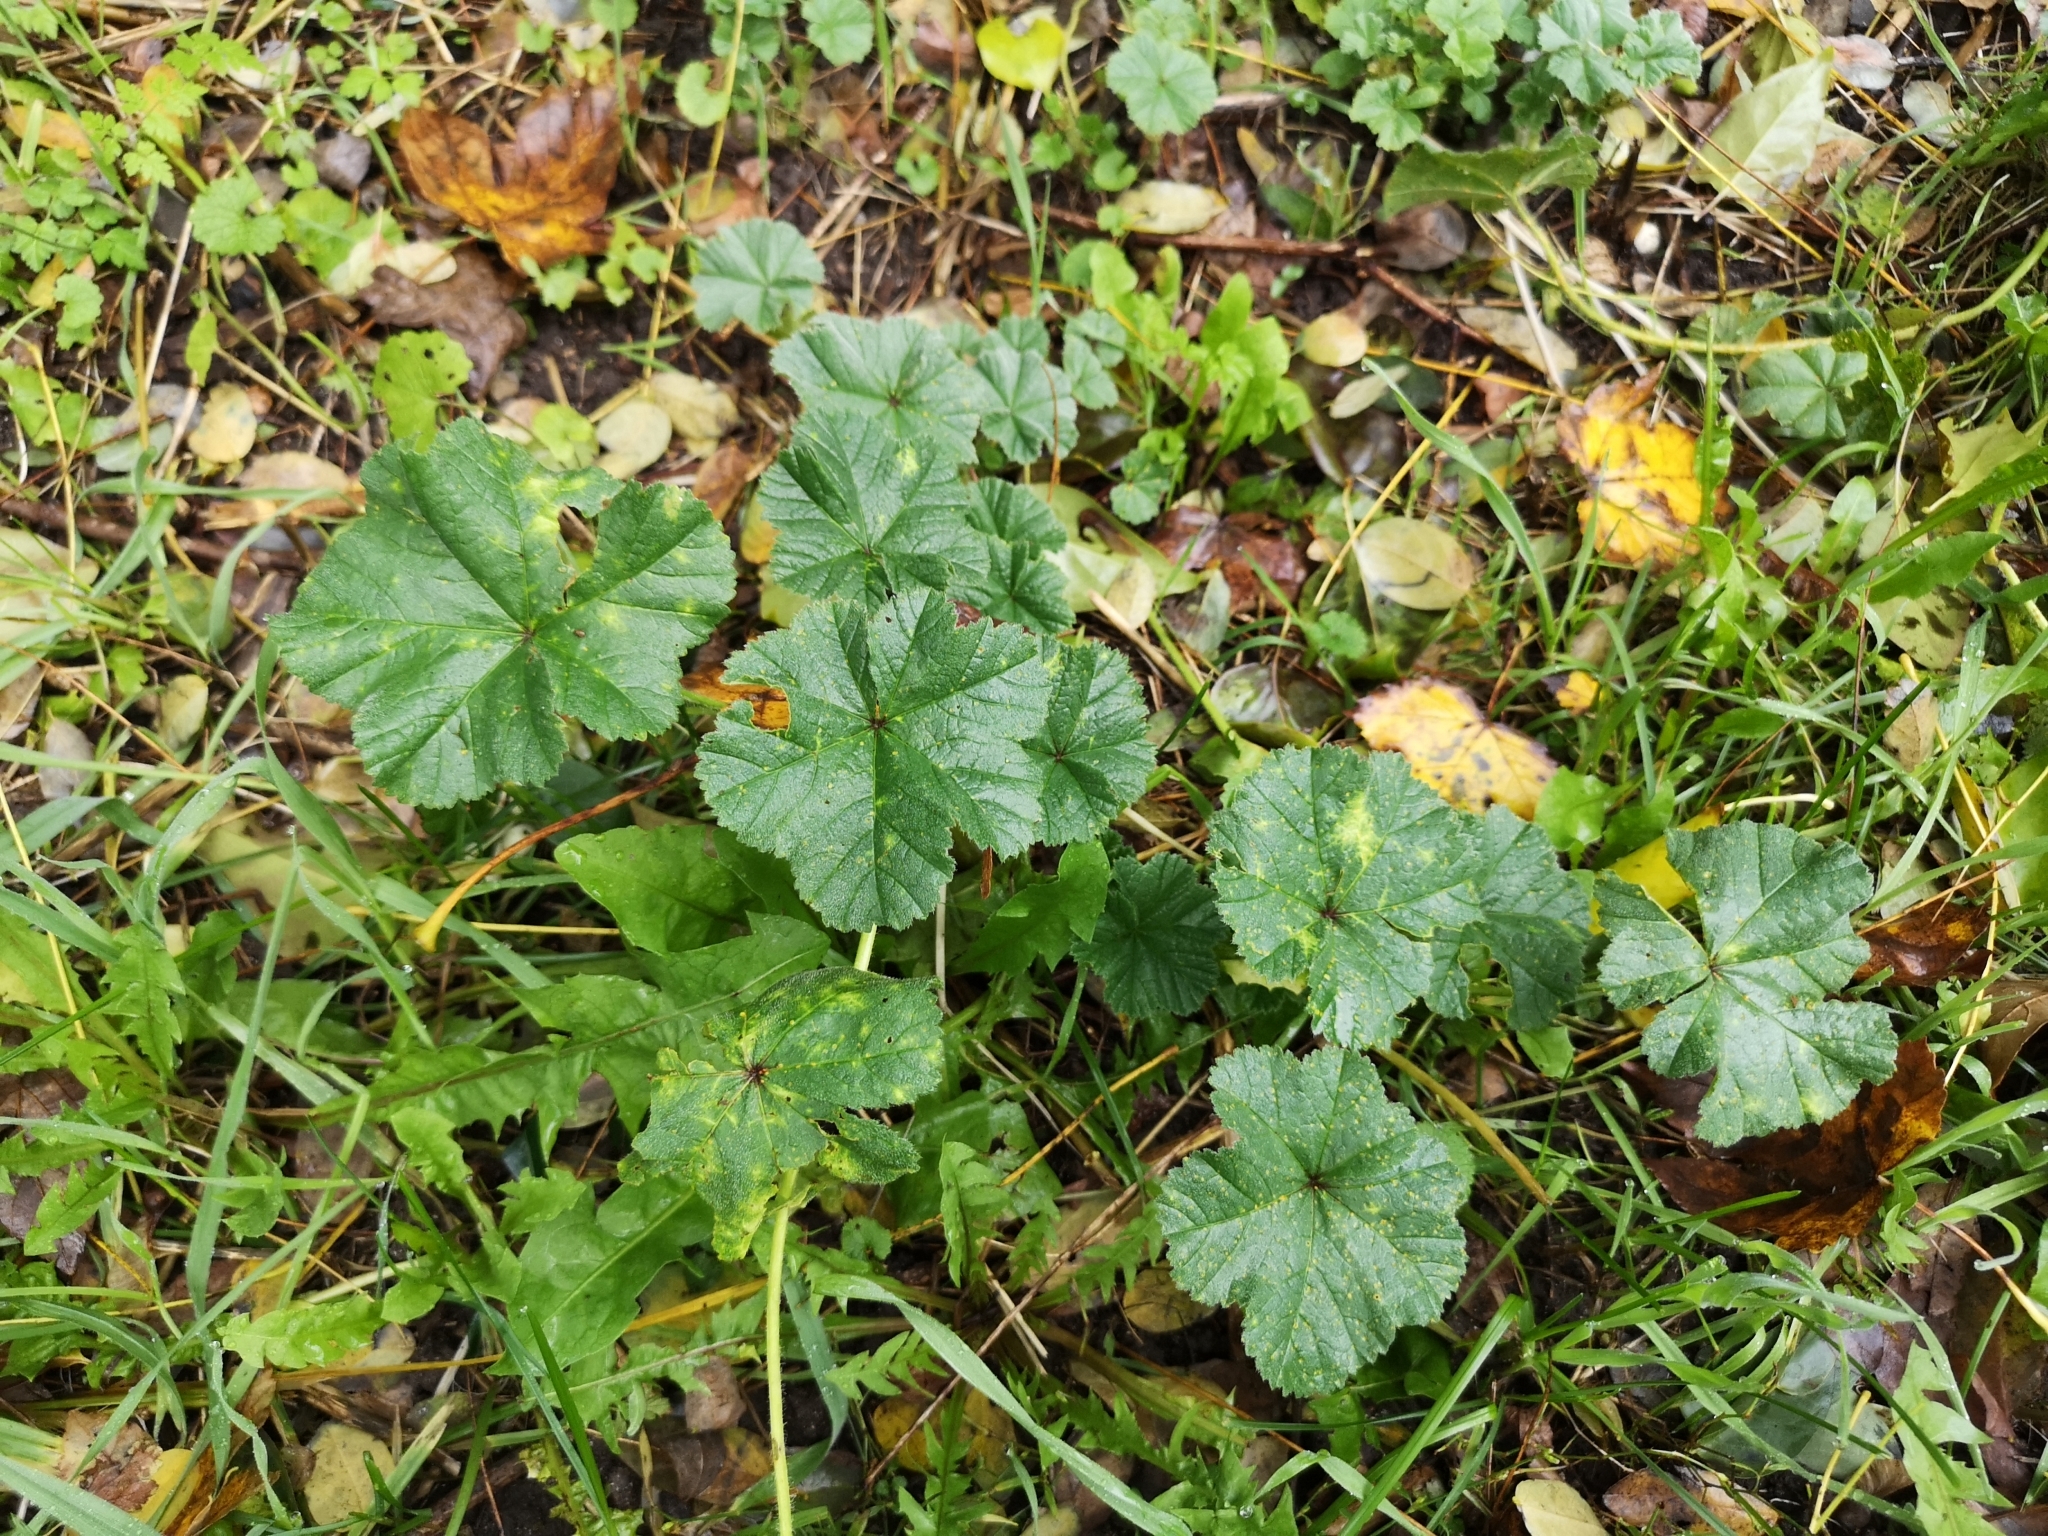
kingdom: Plantae
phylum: Tracheophyta
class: Magnoliopsida
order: Malvales
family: Malvaceae
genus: Malva
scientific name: Malva sylvestris
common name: Common mallow
